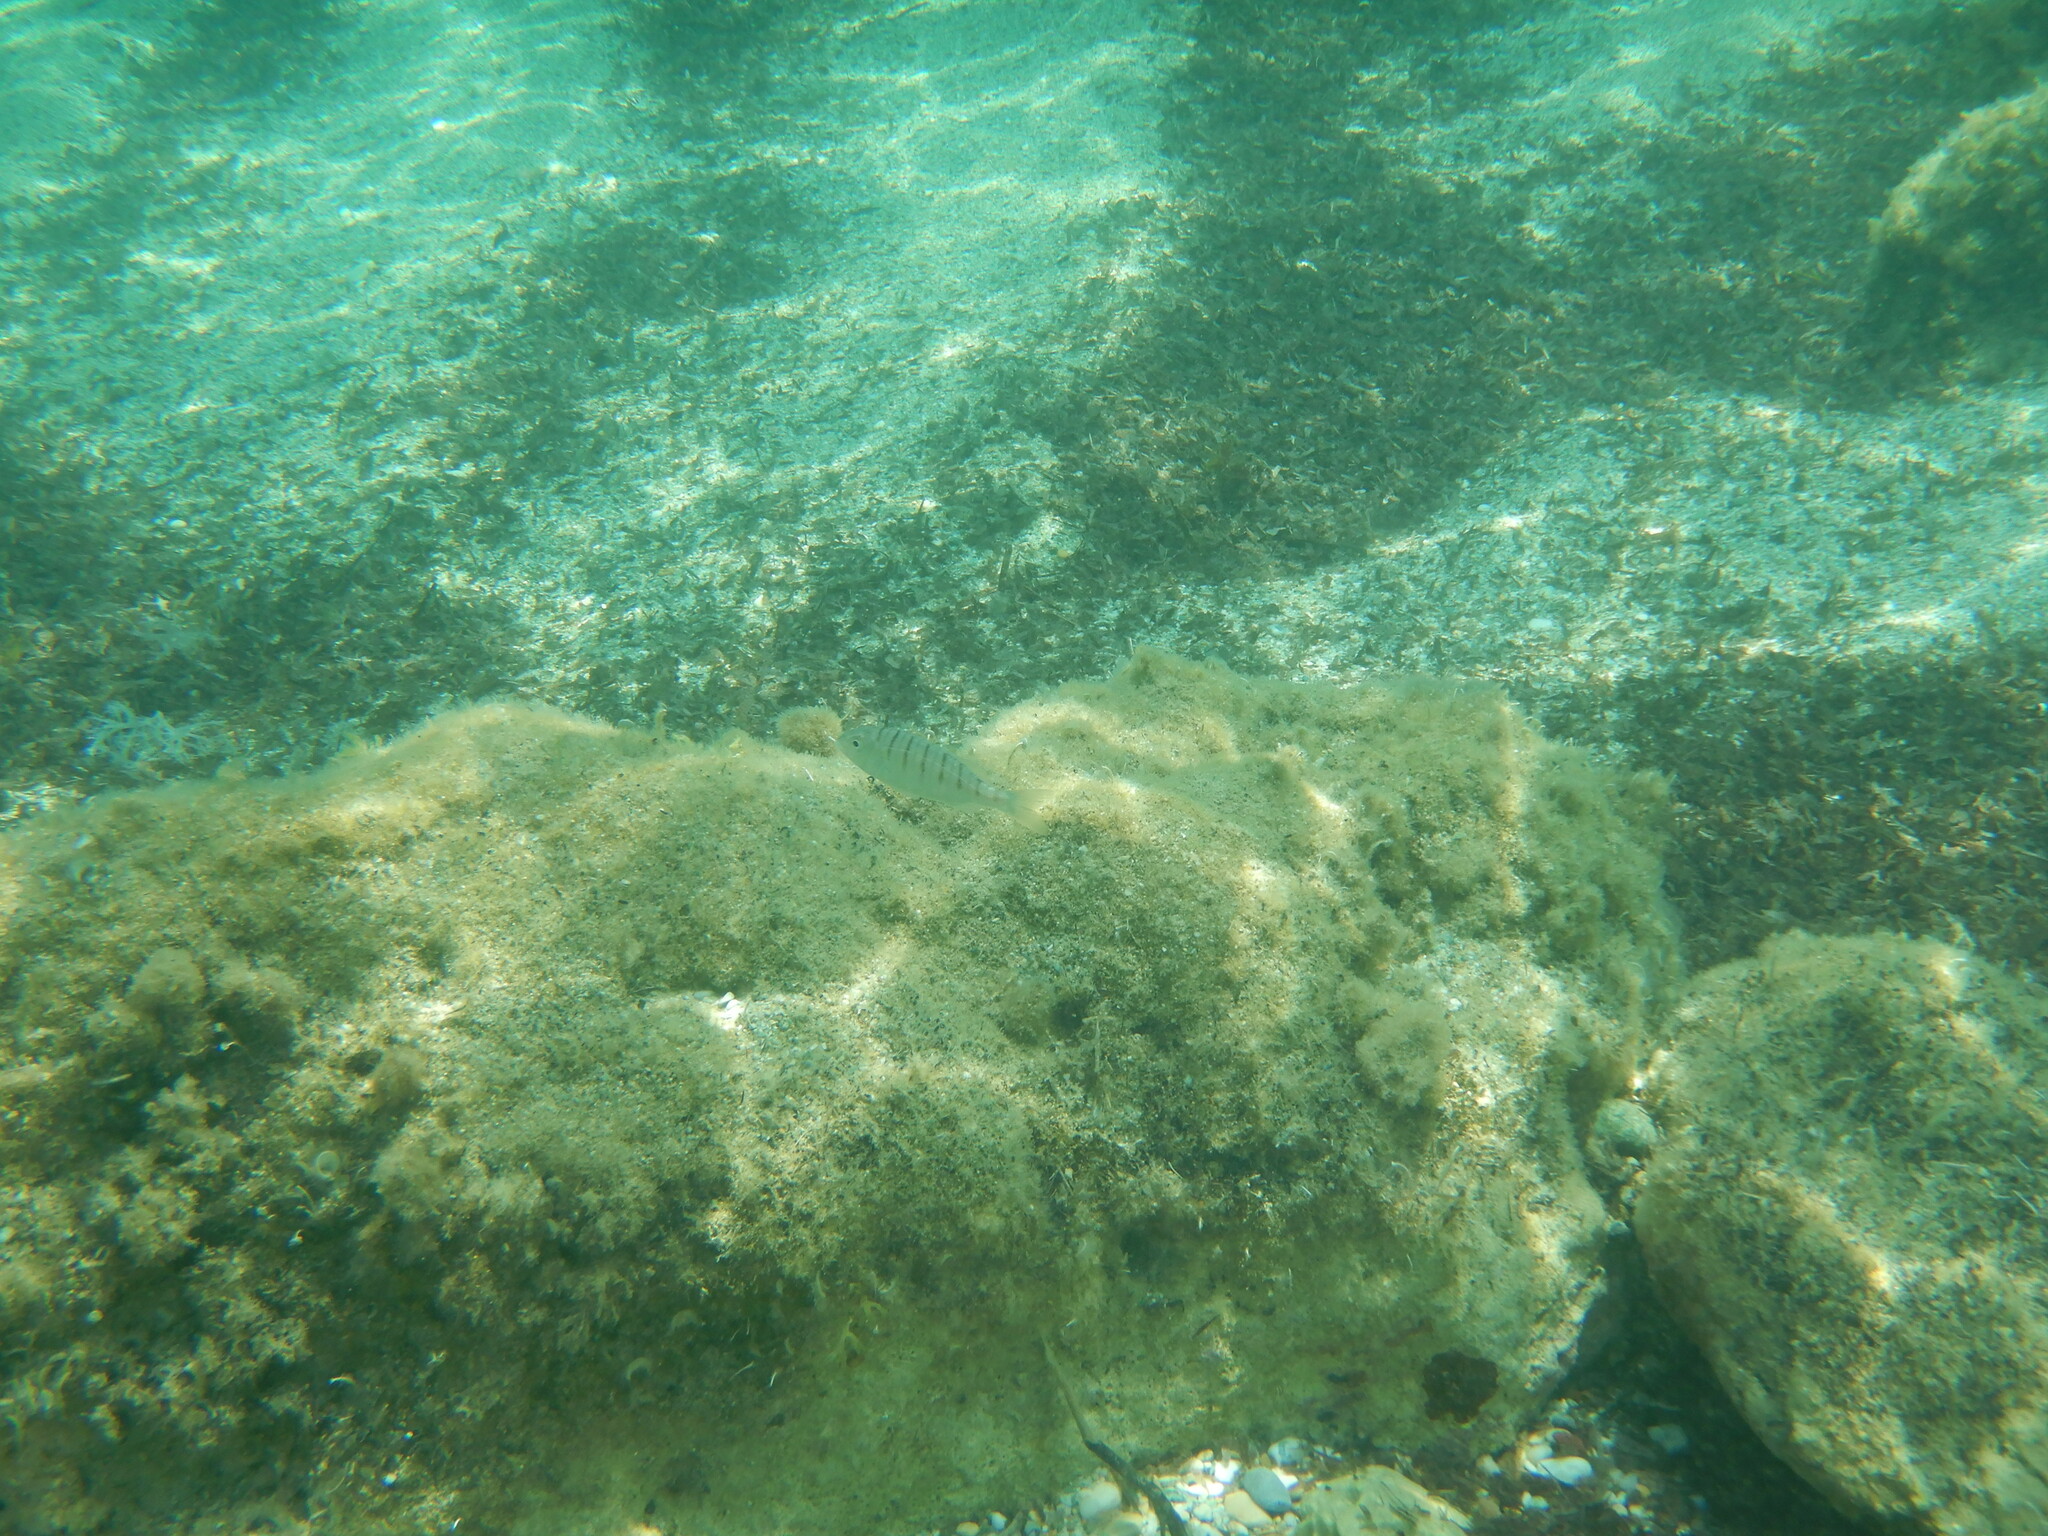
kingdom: Animalia
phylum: Chordata
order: Perciformes
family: Sparidae
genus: Lithognathus
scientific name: Lithognathus mormyrus
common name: Sand steenbras
